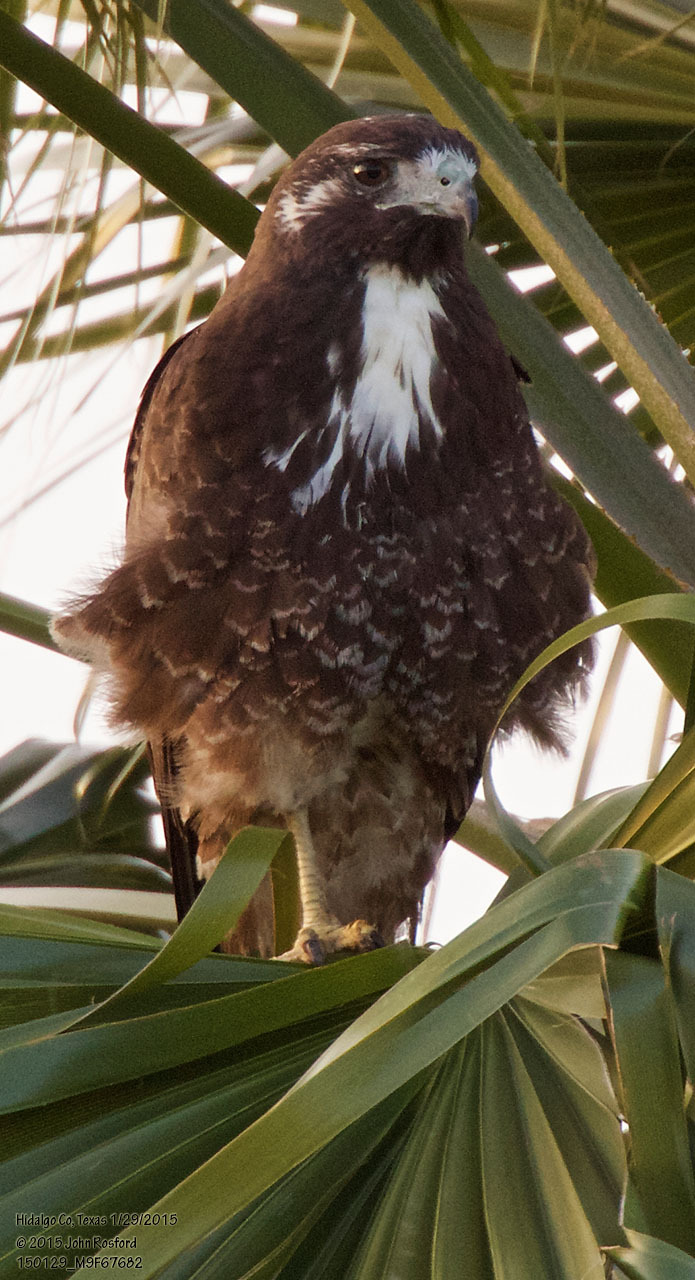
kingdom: Animalia
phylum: Chordata
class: Aves
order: Accipitriformes
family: Accipitridae
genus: Buteo
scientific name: Buteo albicaudatus
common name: White-tailed hawk
